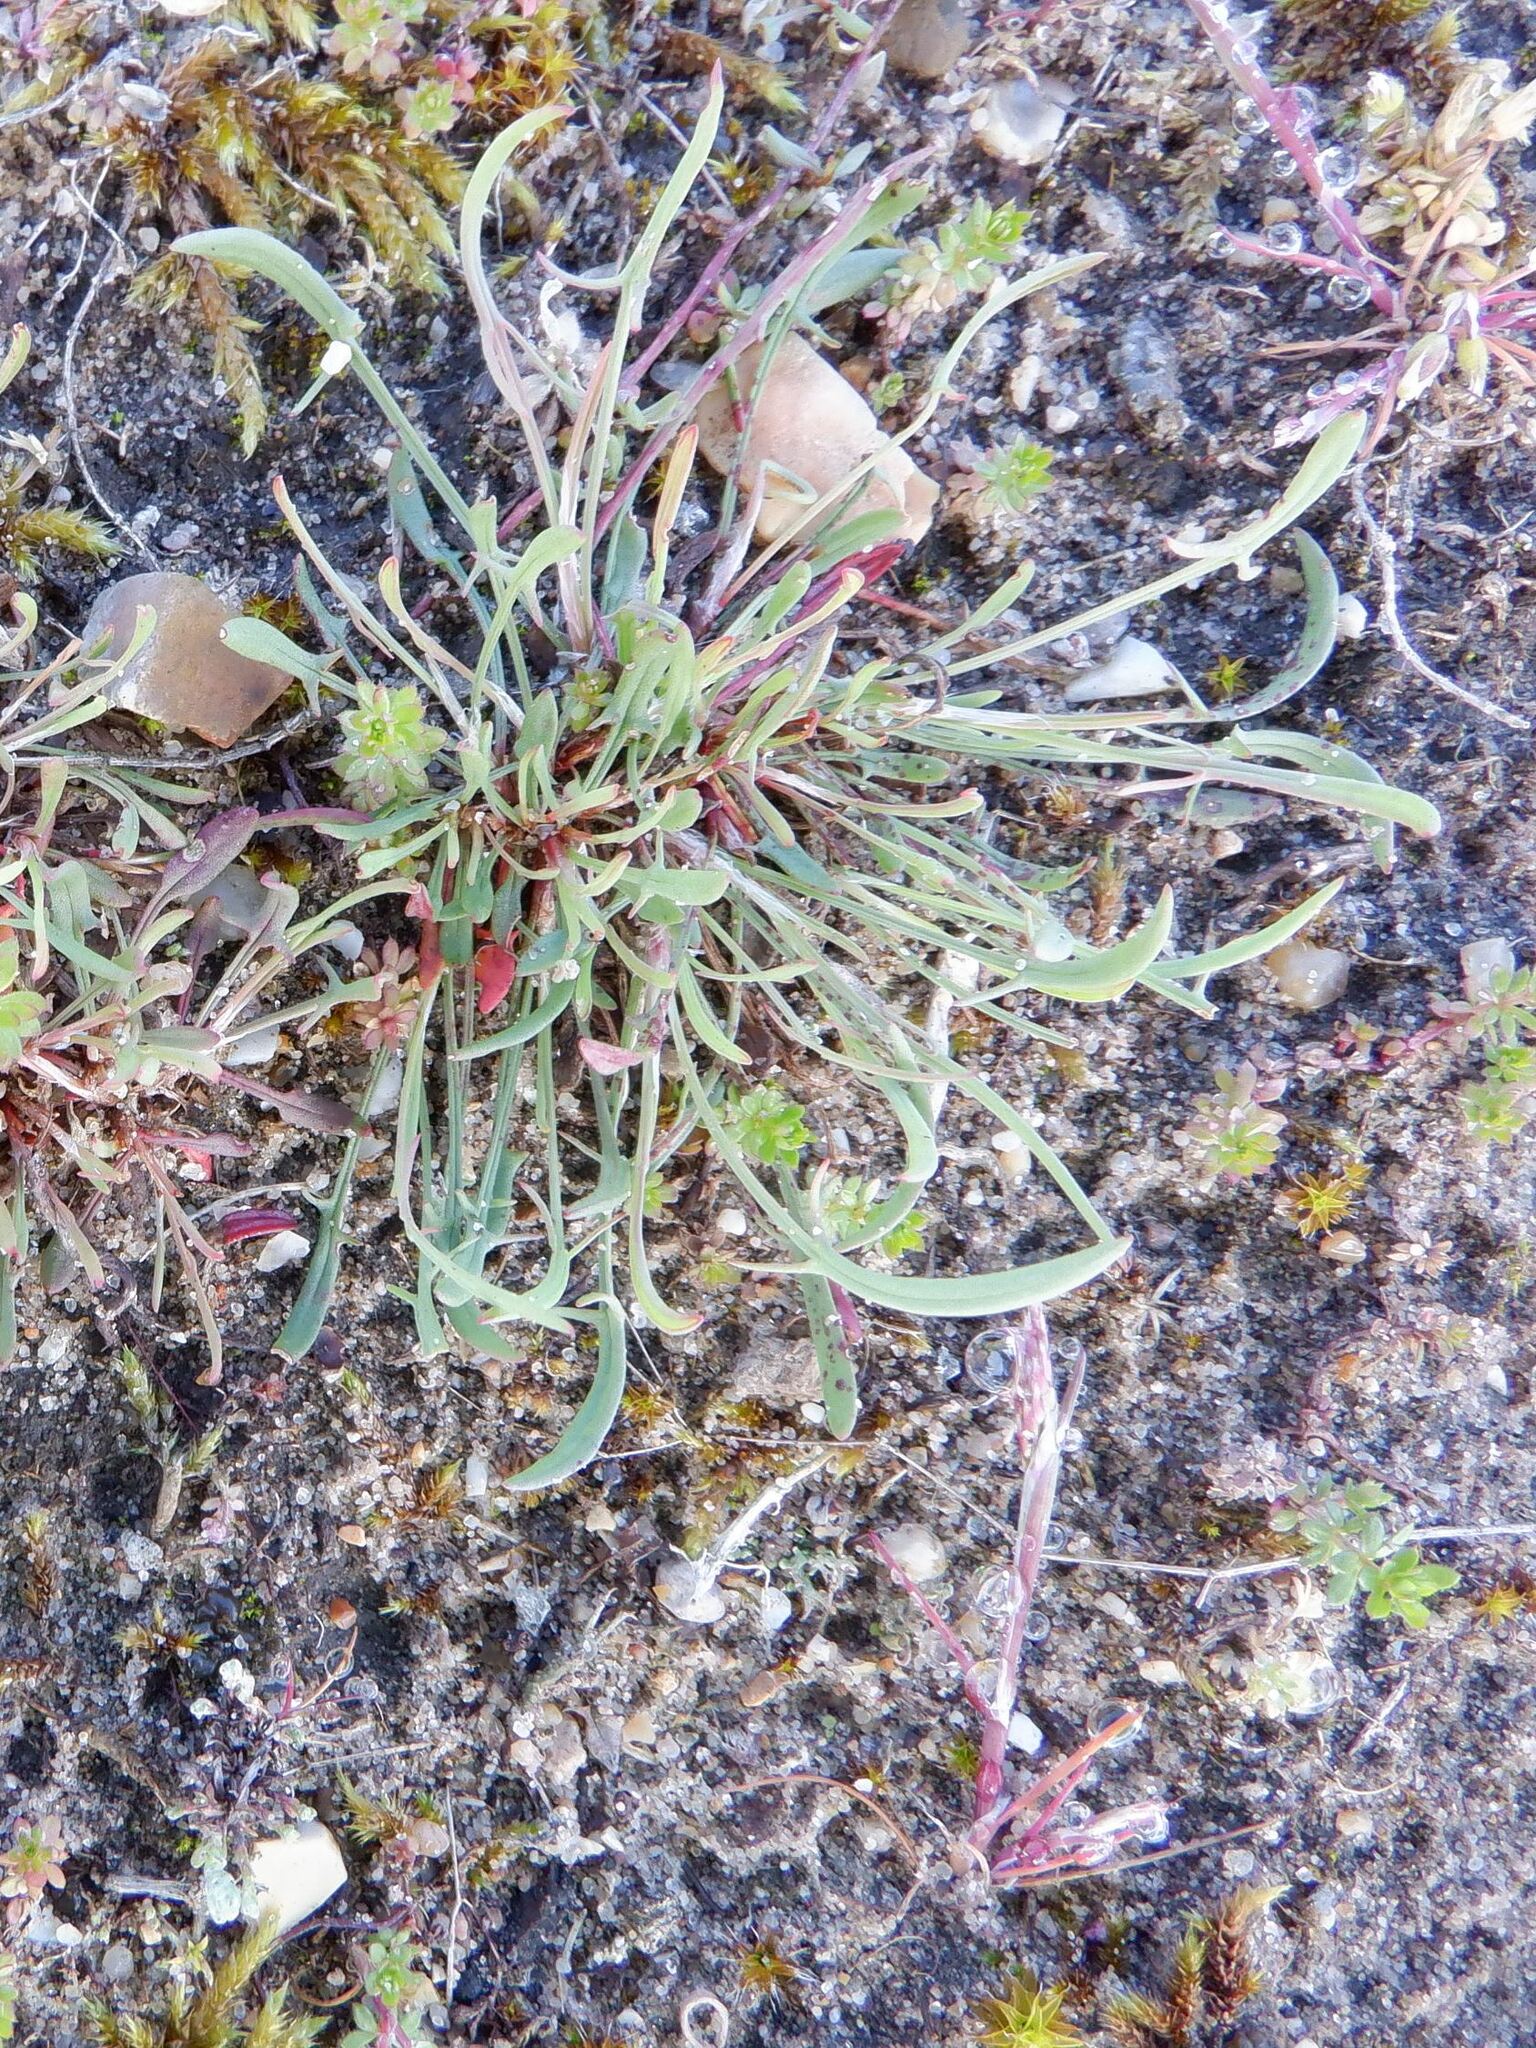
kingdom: Plantae
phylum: Tracheophyta
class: Magnoliopsida
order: Caryophyllales
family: Polygonaceae
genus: Rumex
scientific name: Rumex acetosella
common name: Common sheep sorrel
